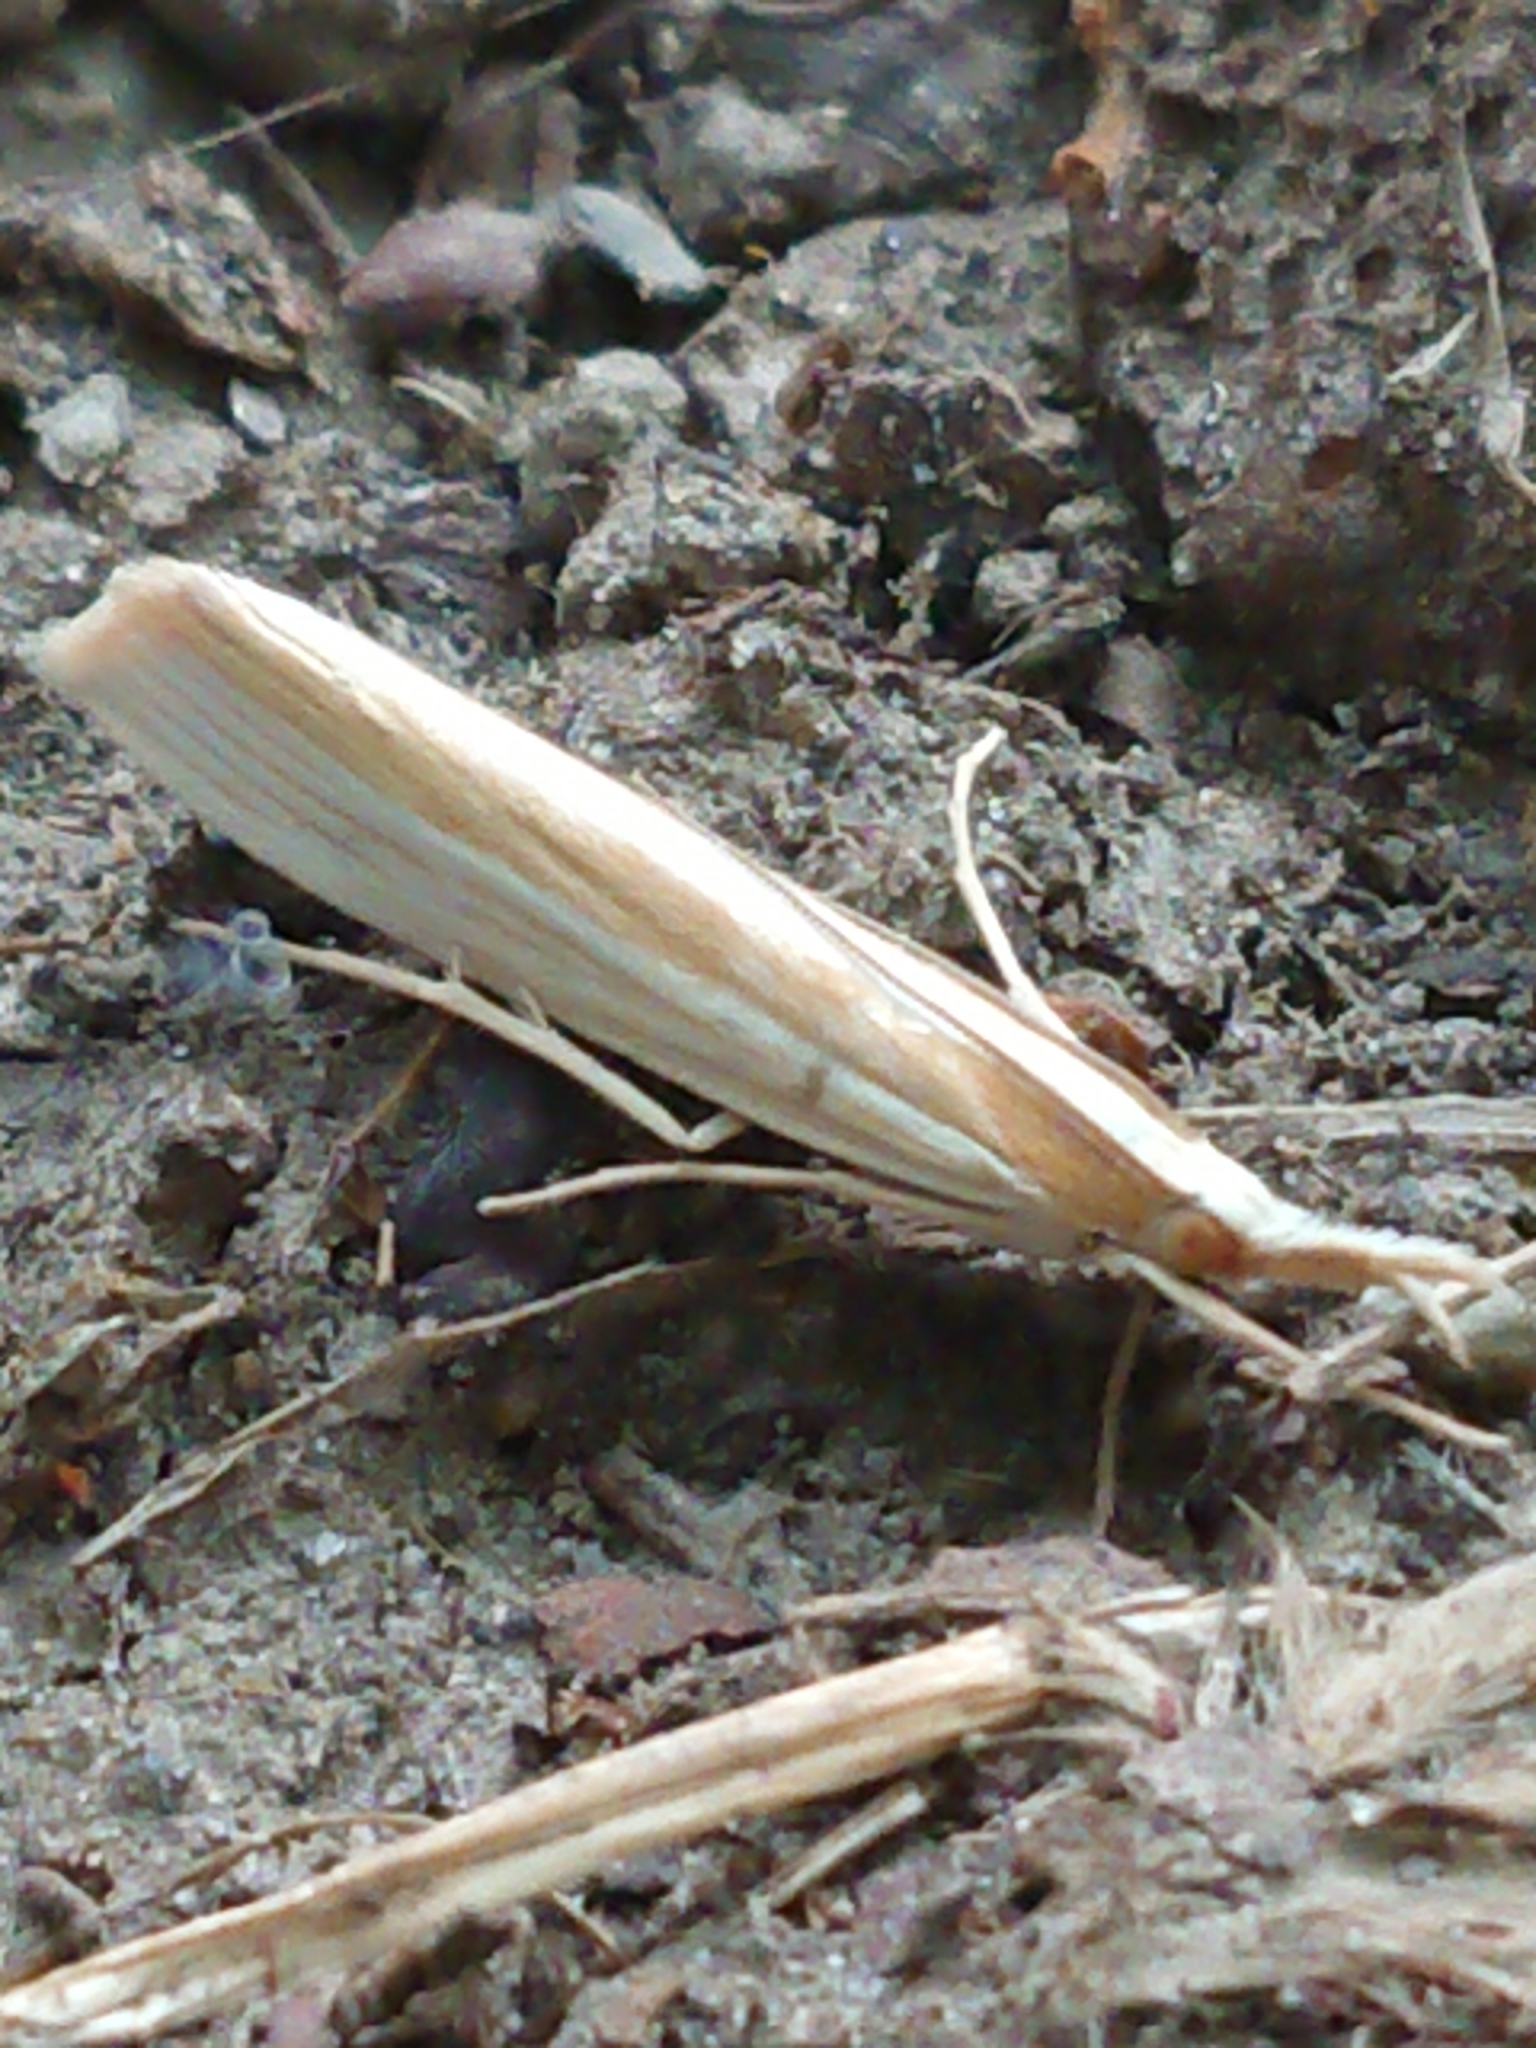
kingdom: Animalia
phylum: Arthropoda
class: Insecta
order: Lepidoptera
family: Crambidae
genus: Orocrambus
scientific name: Orocrambus angustipennis
